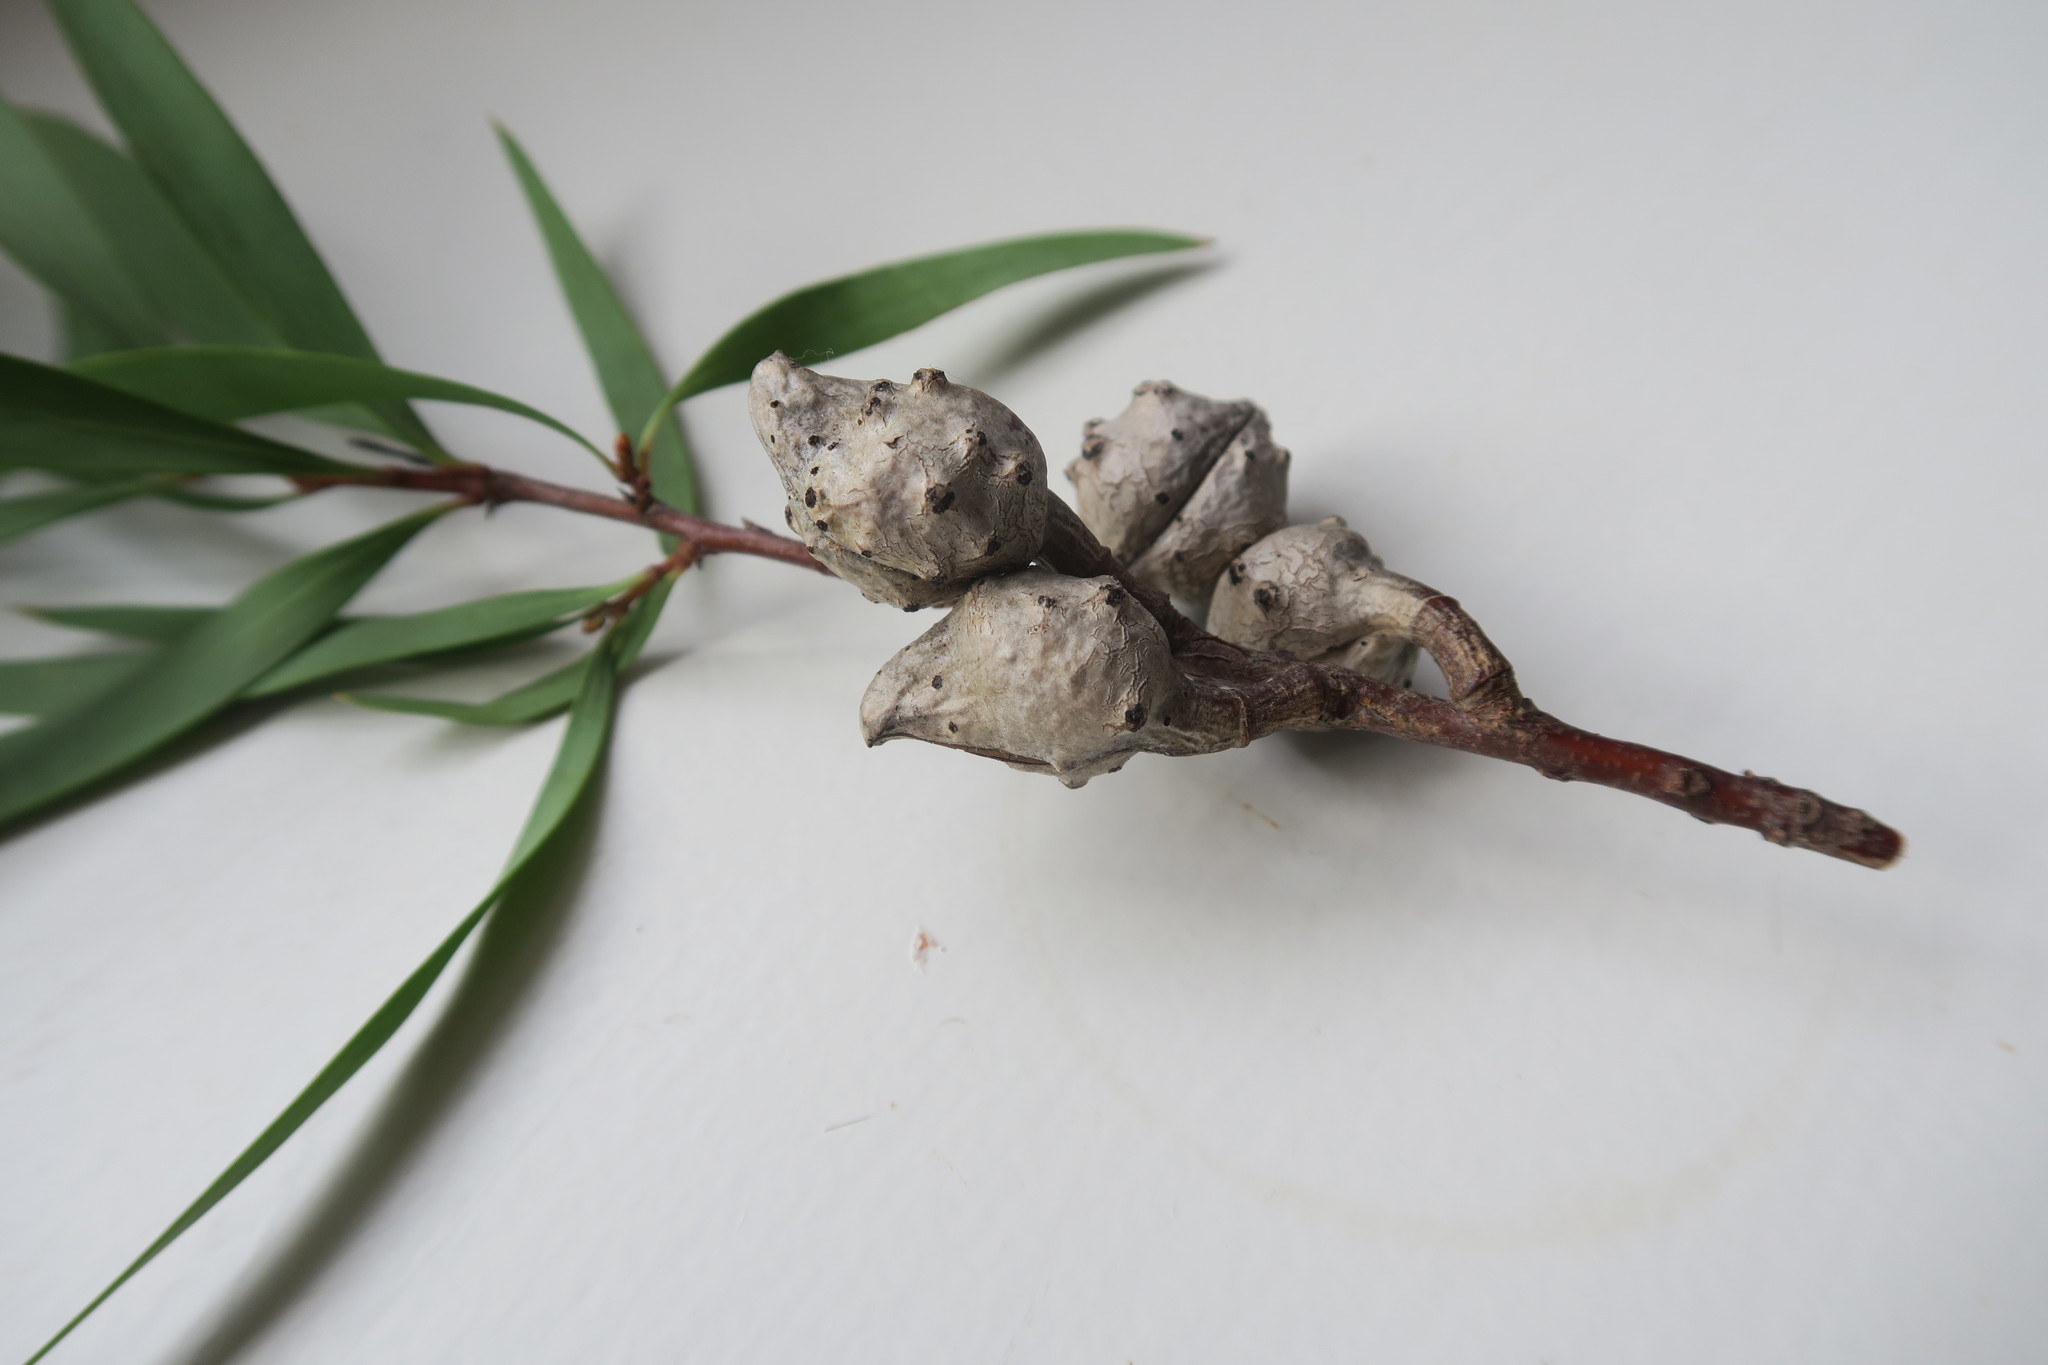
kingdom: Plantae
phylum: Tracheophyta
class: Magnoliopsida
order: Proteales
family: Proteaceae
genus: Hakea
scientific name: Hakea salicifolia
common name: Willow hakea
